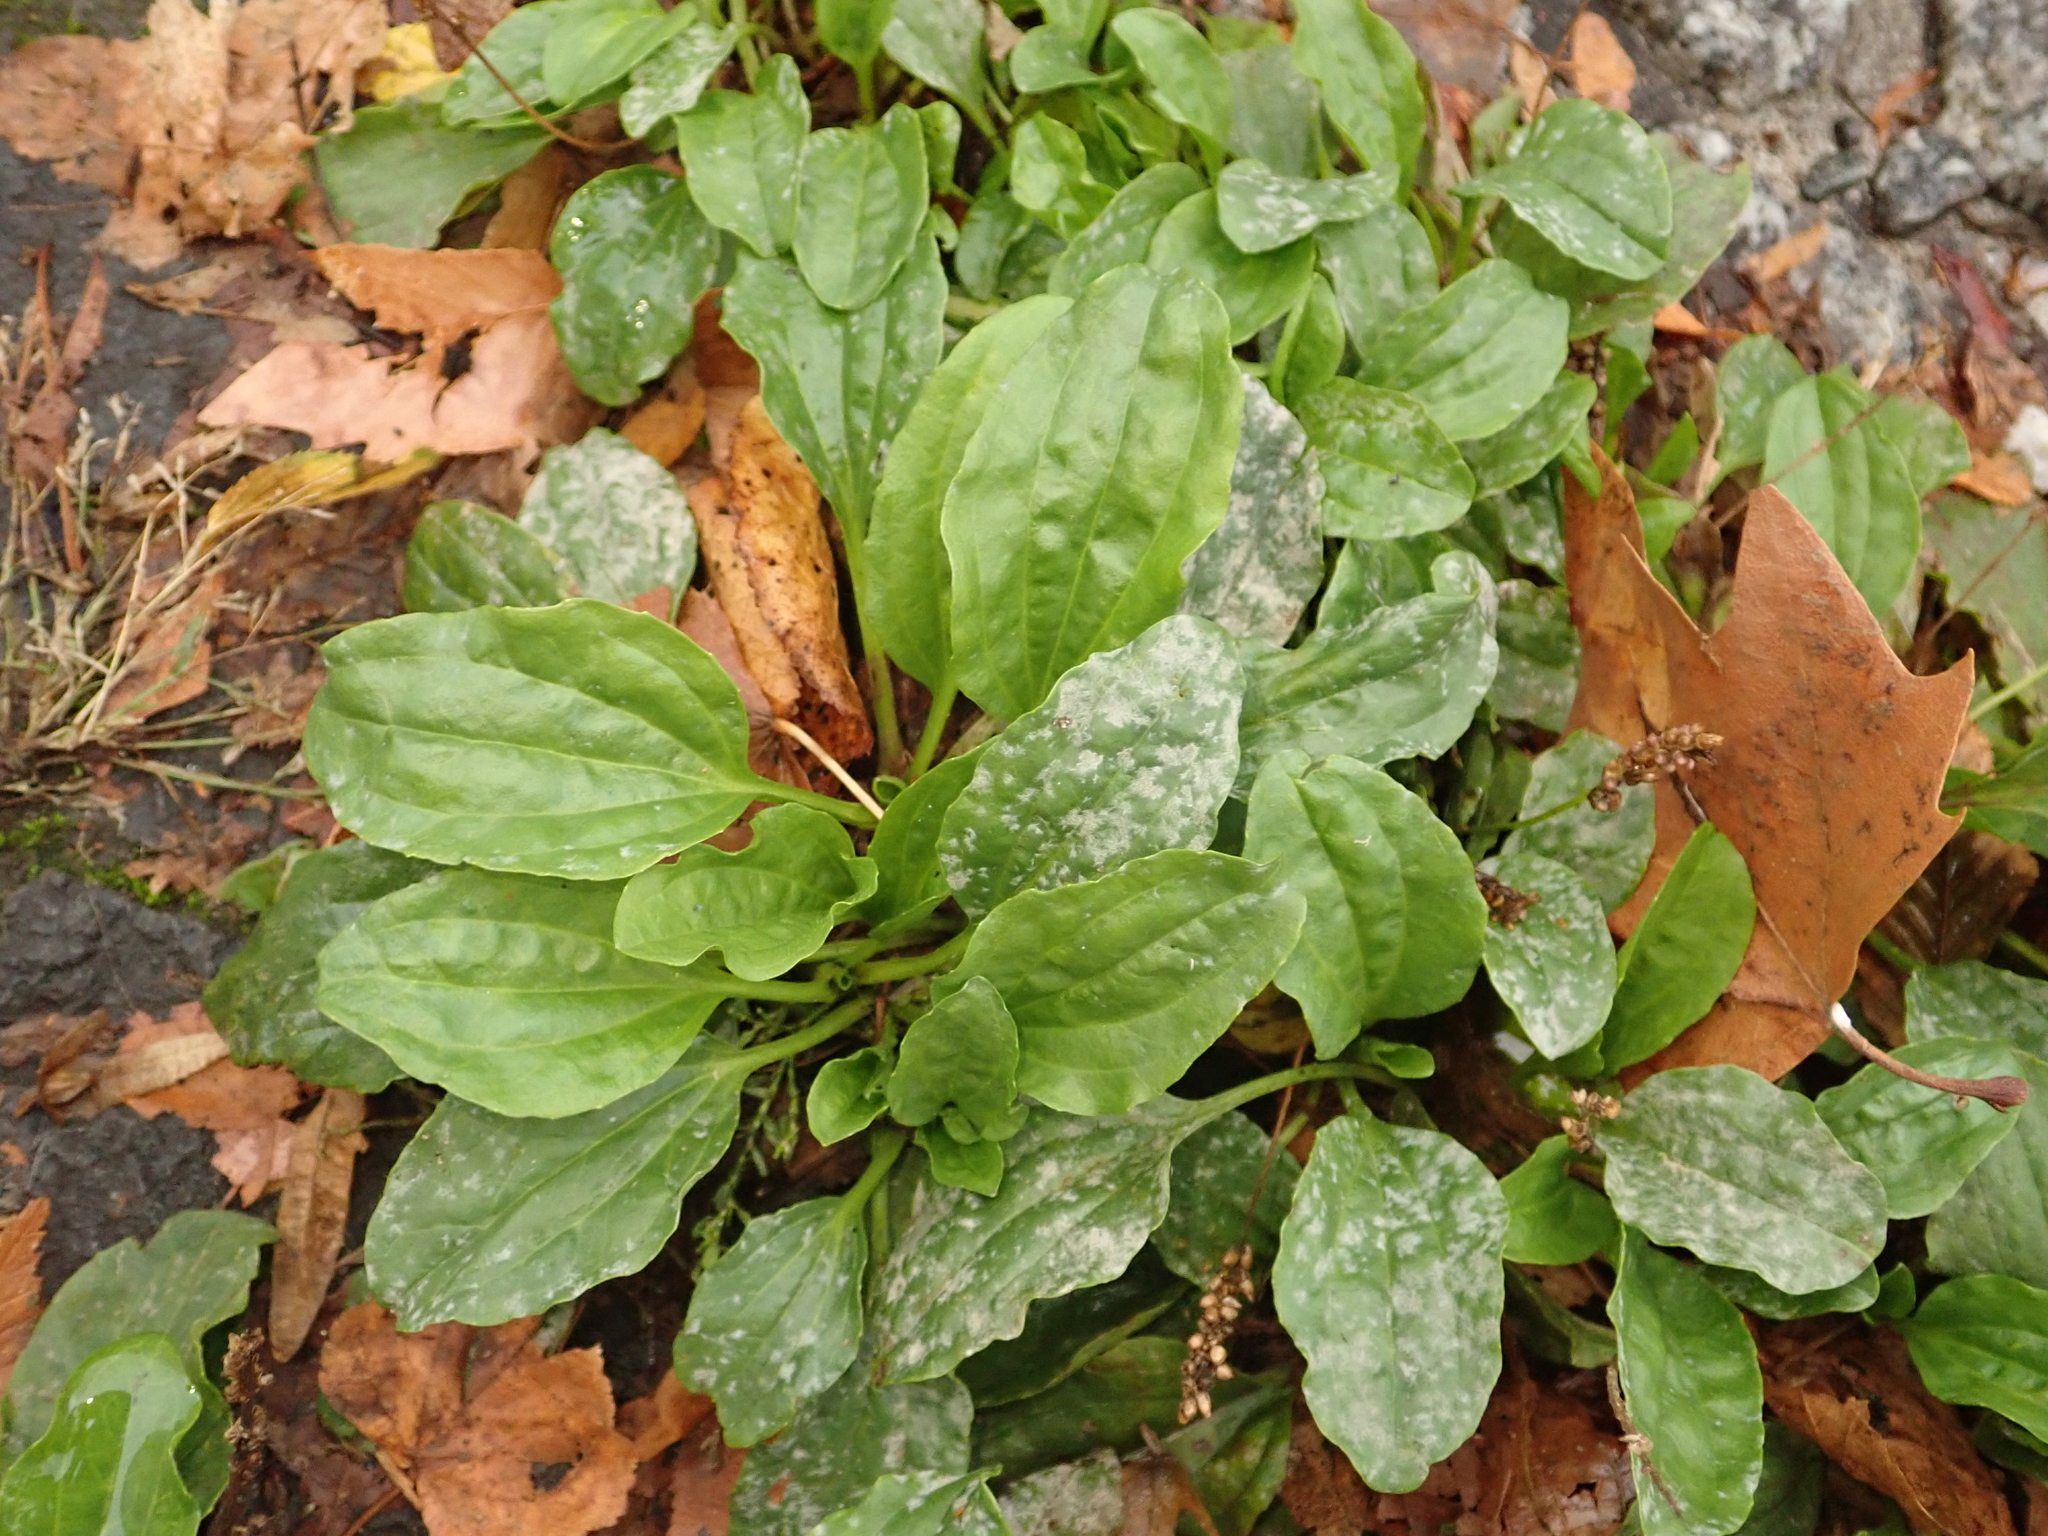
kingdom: Plantae
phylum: Tracheophyta
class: Magnoliopsida
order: Lamiales
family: Plantaginaceae
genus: Plantago
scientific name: Plantago major
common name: Common plantain
